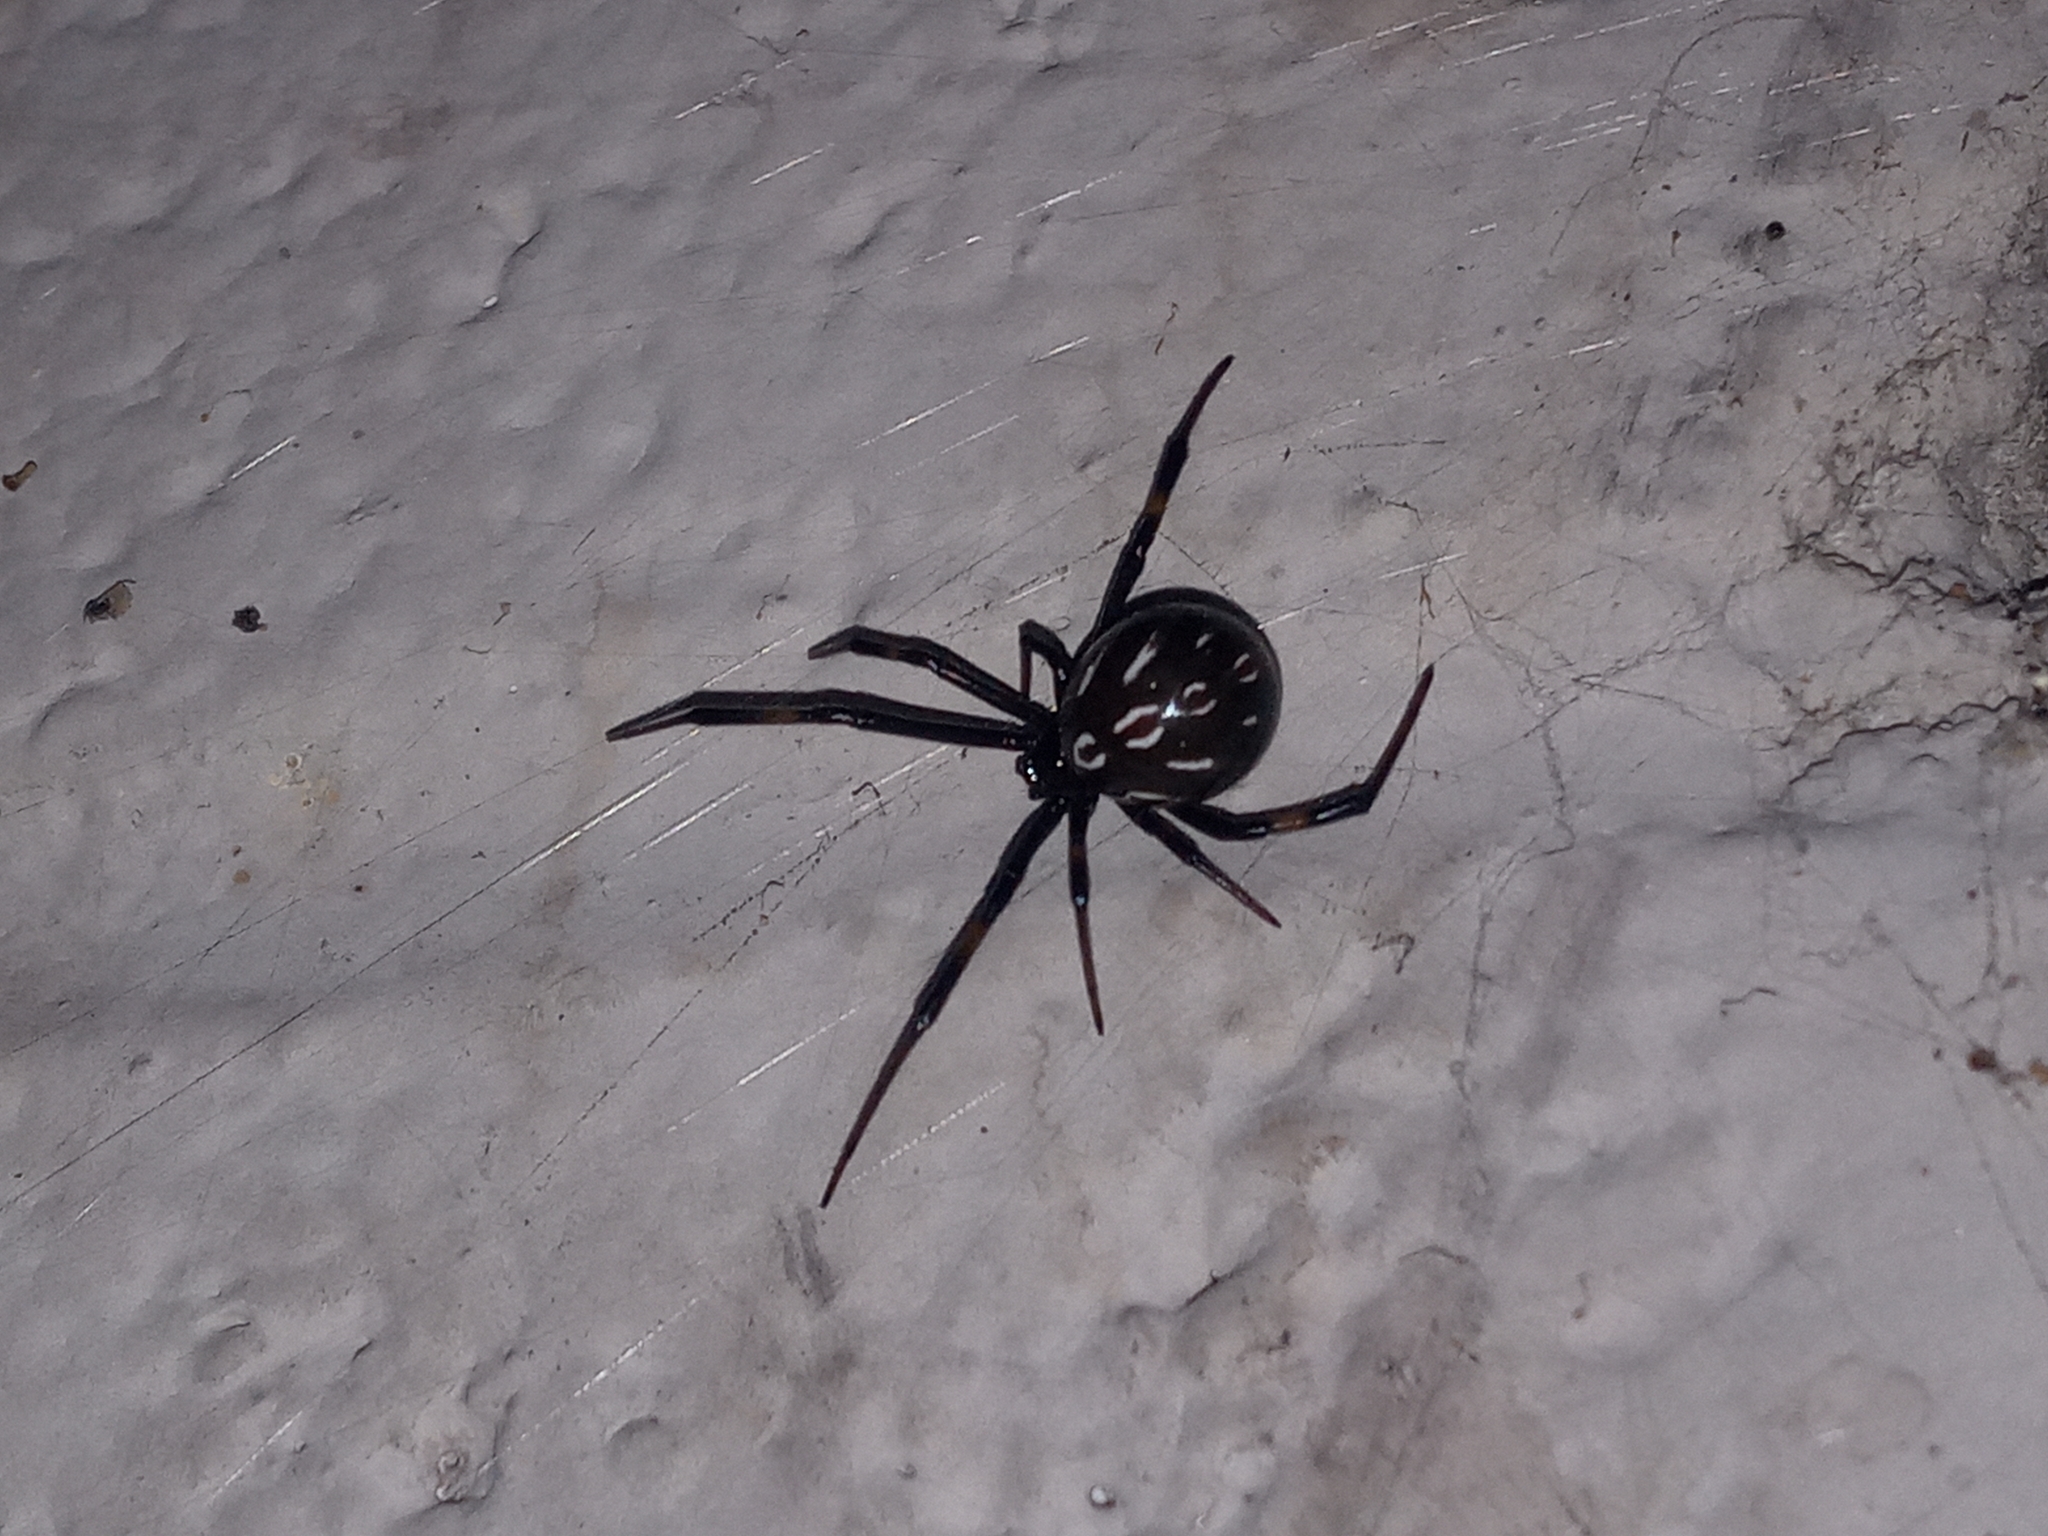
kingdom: Animalia
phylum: Arthropoda
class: Arachnida
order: Araneae
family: Theridiidae
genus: Latrodectus
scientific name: Latrodectus hesperus
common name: Western black widow
